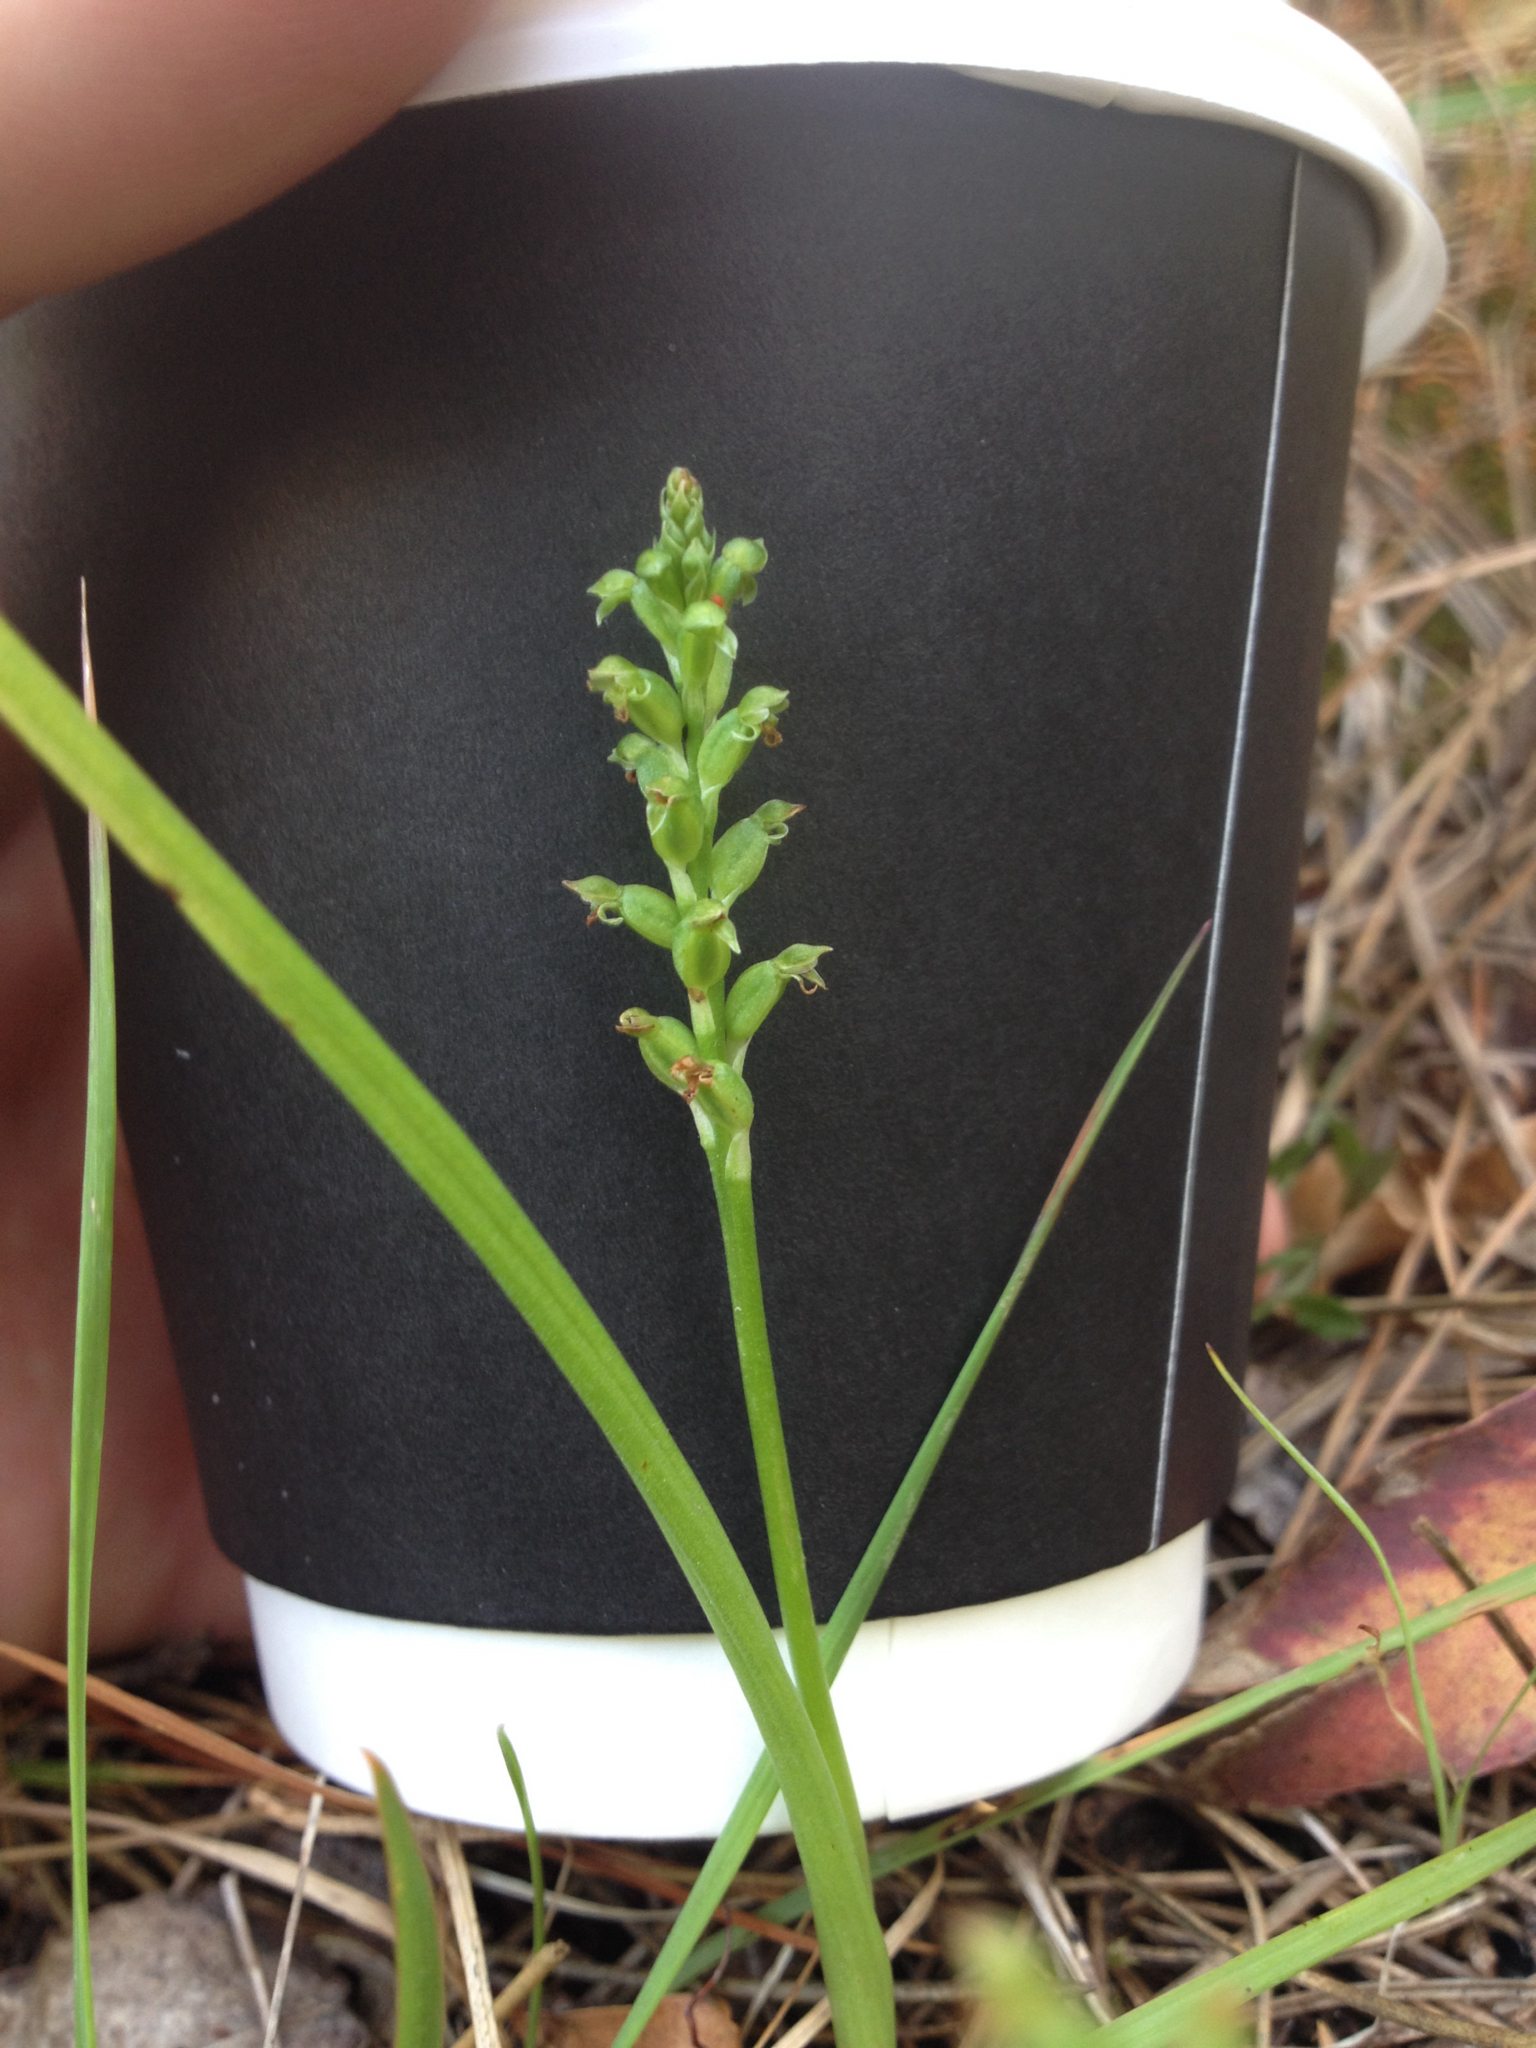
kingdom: Plantae
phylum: Tracheophyta
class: Liliopsida
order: Asparagales
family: Orchidaceae
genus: Microtis
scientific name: Microtis unifolia
